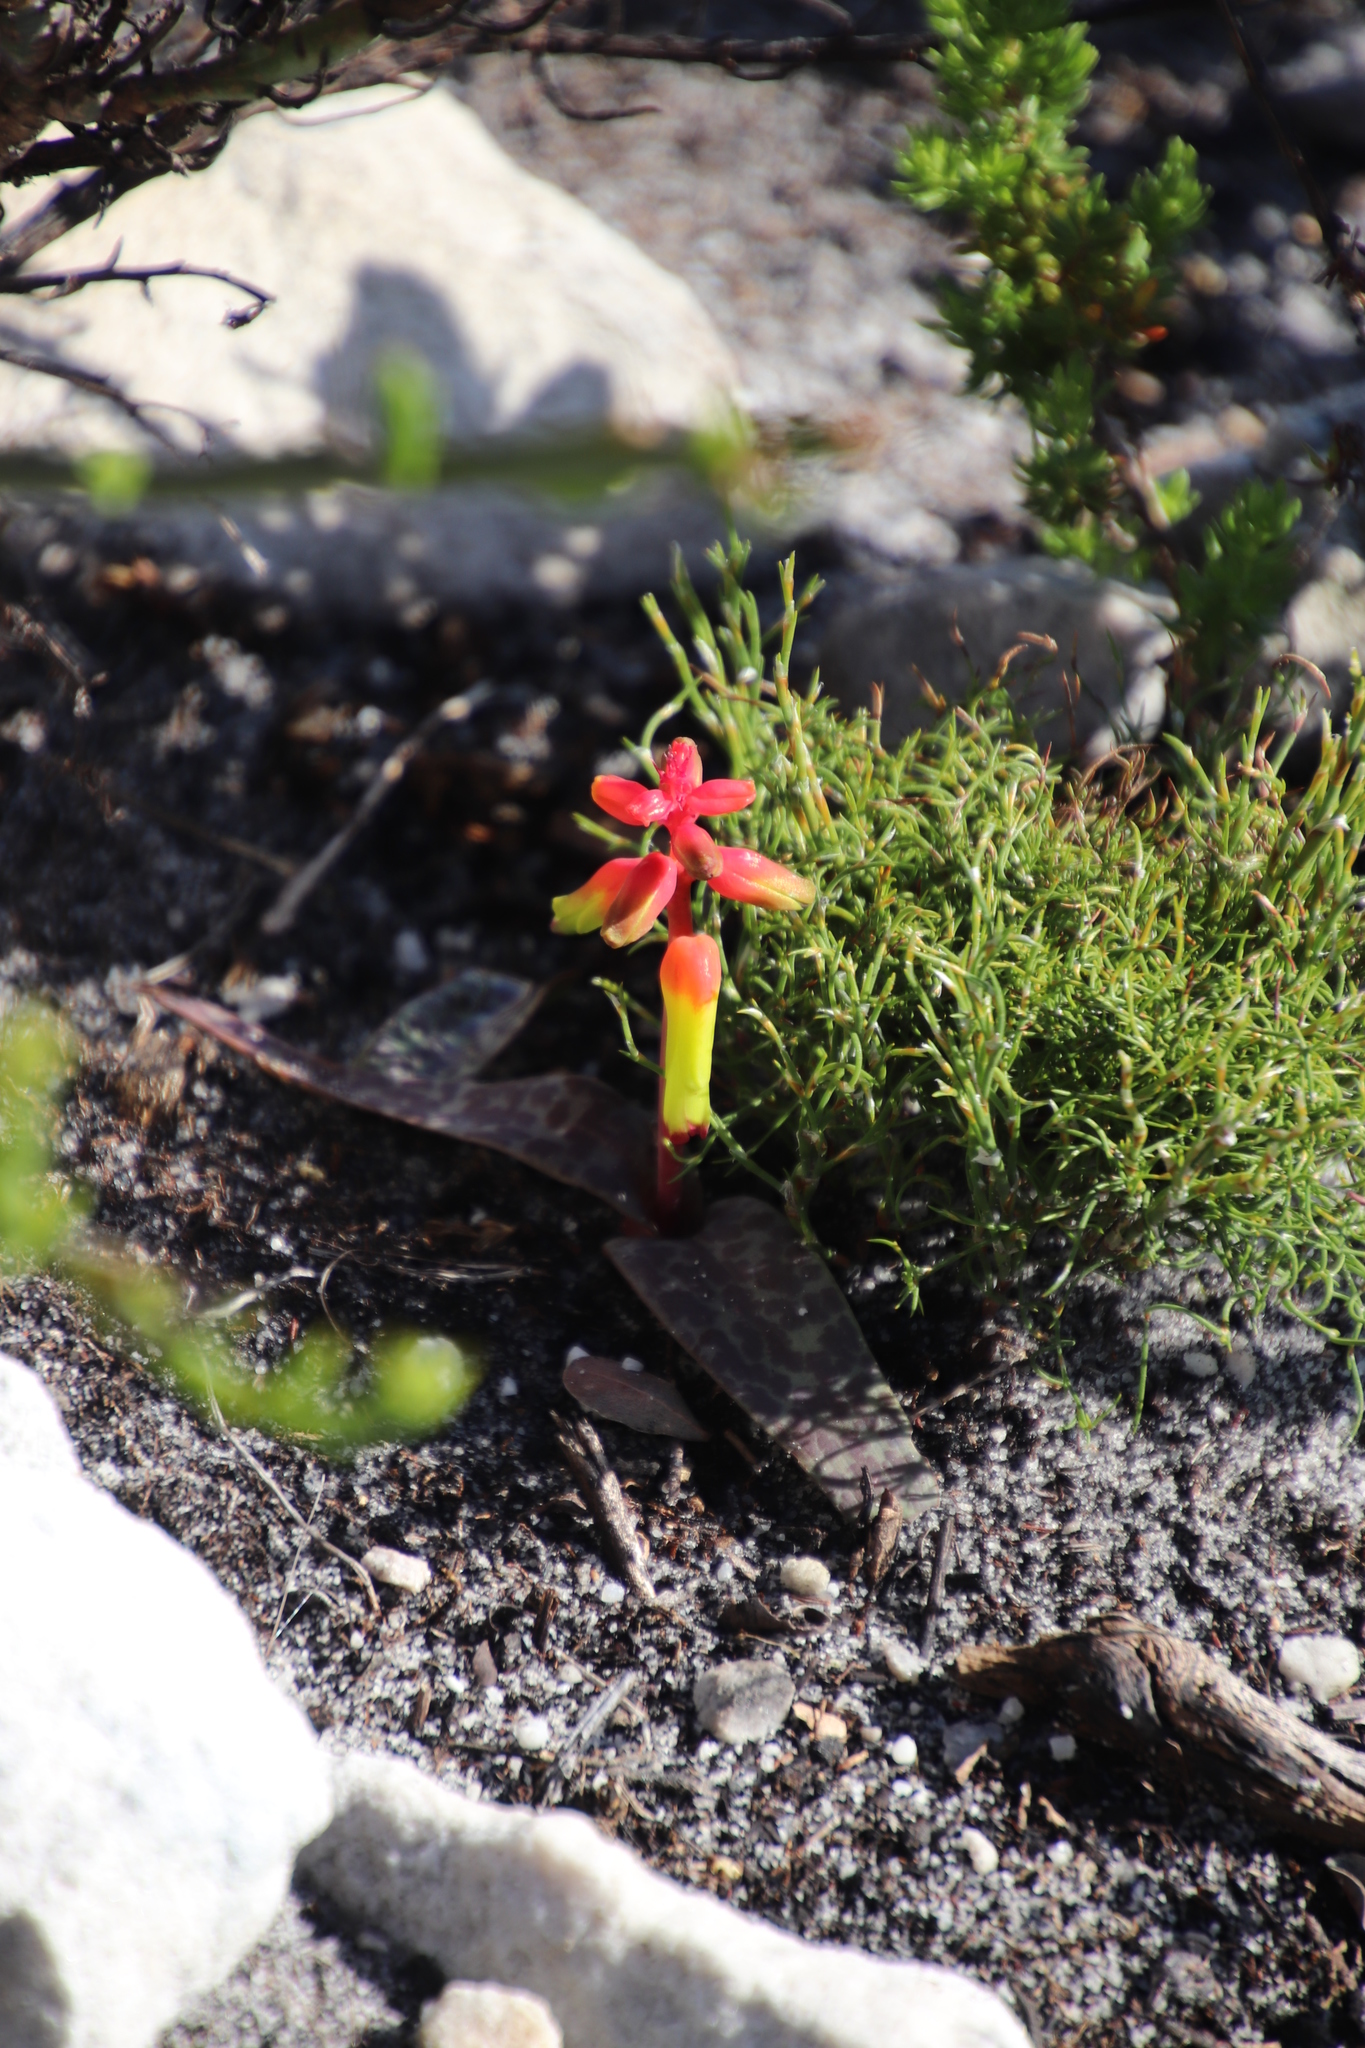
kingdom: Plantae
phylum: Tracheophyta
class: Liliopsida
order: Asparagales
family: Asparagaceae
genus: Lachenalia
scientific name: Lachenalia luteola
